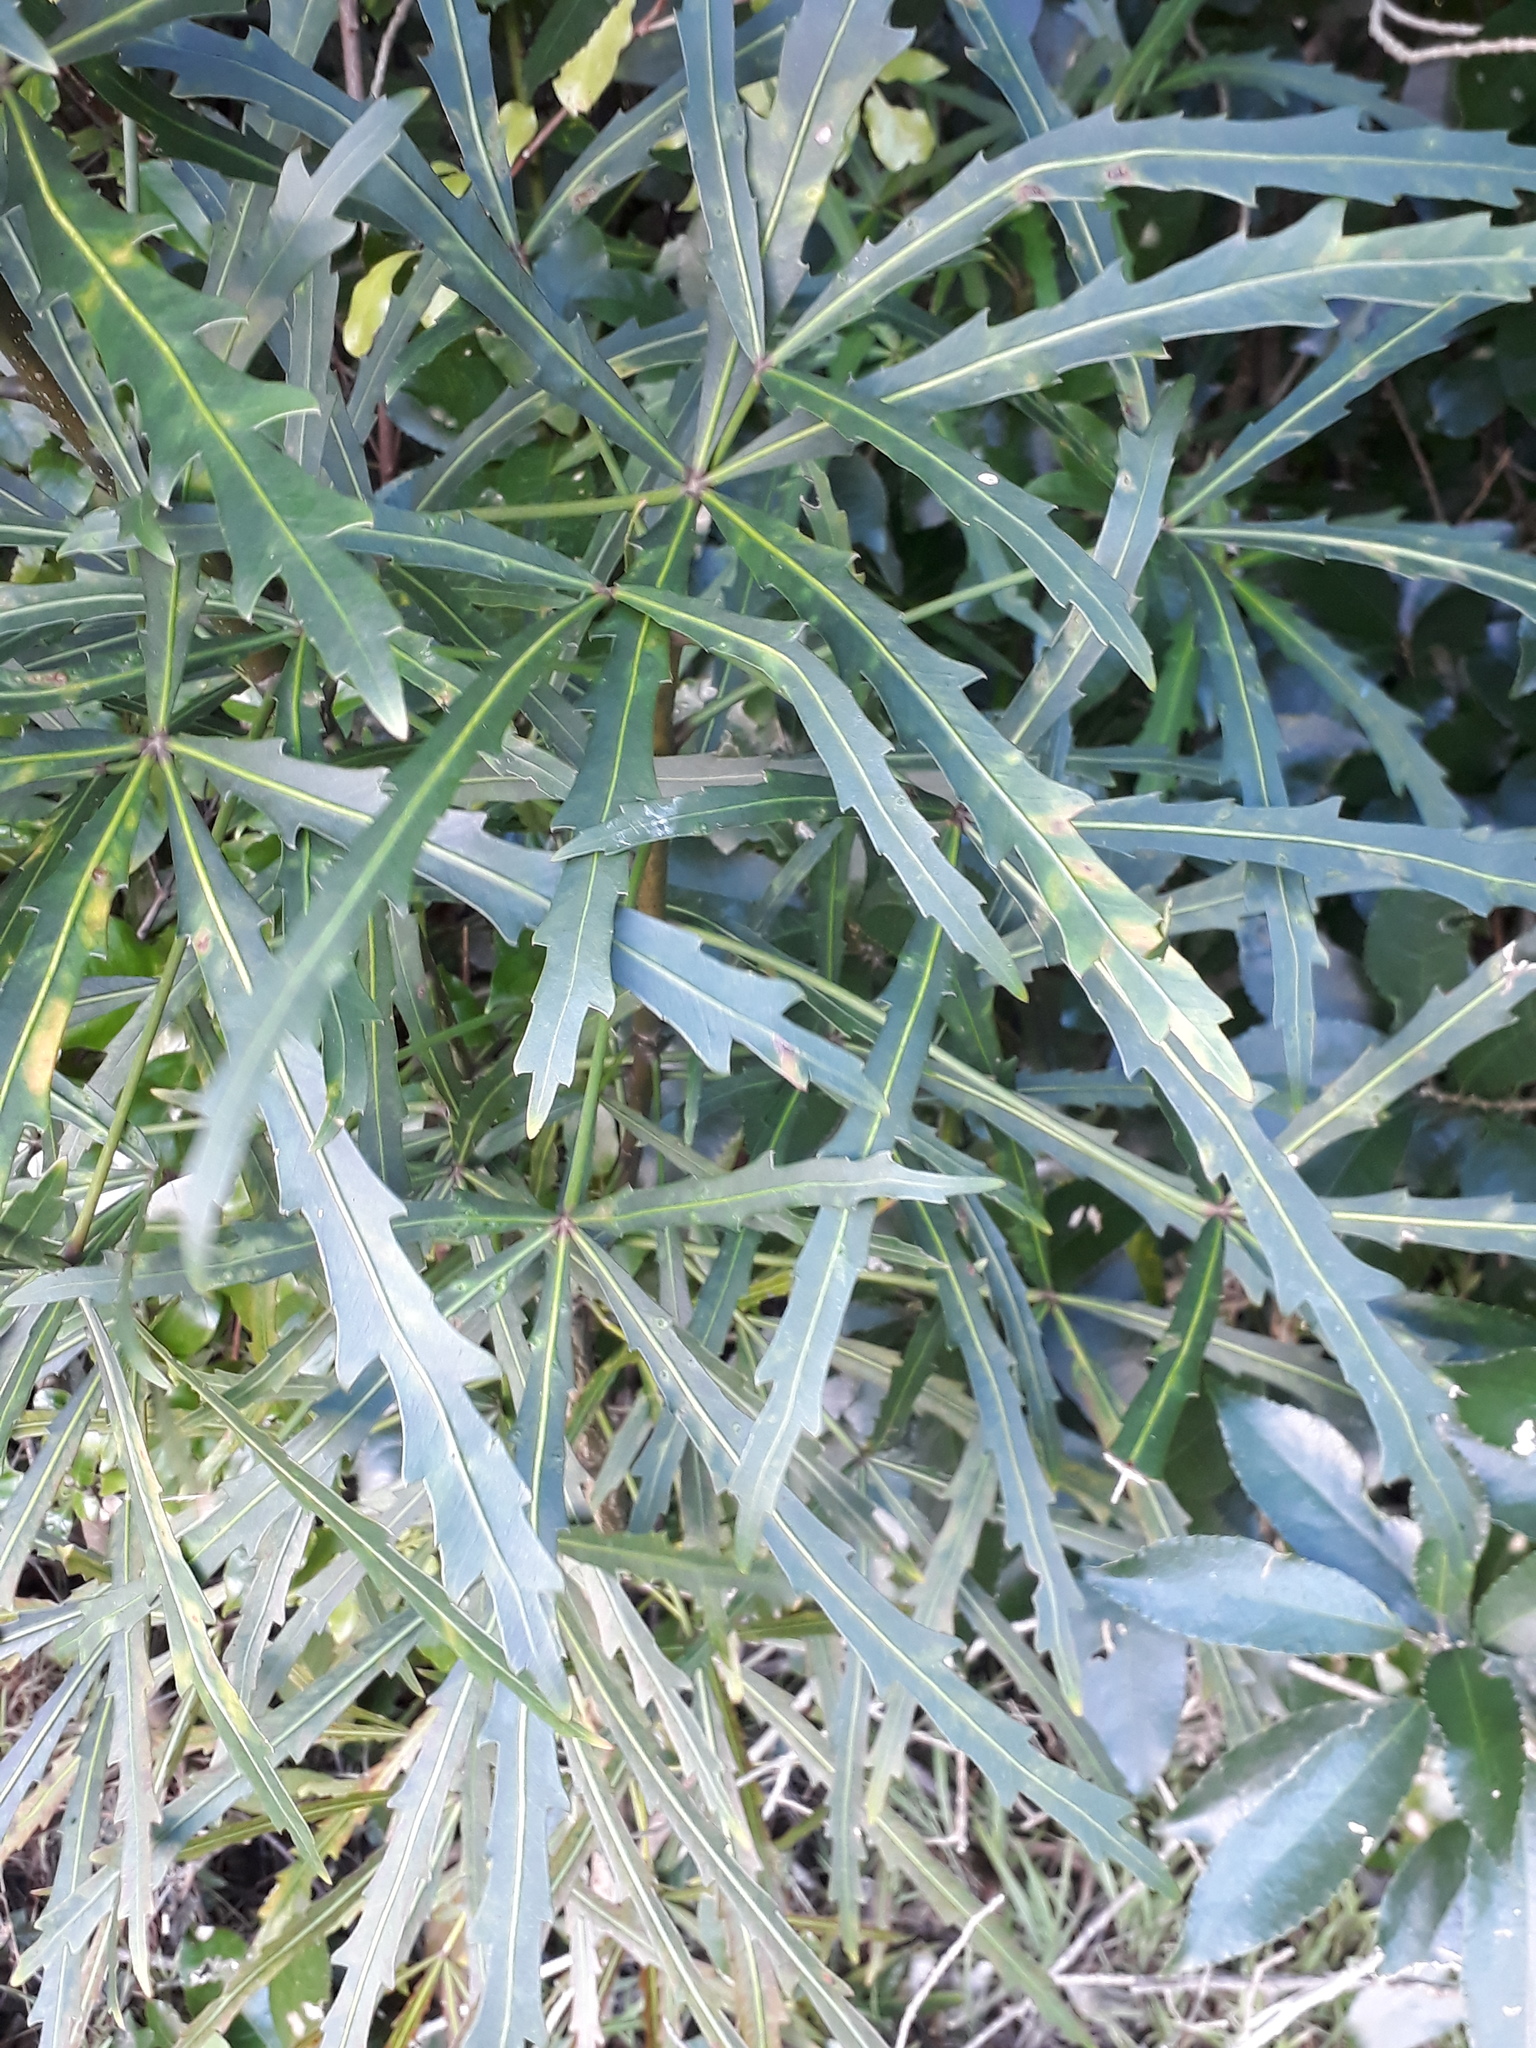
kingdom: Plantae
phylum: Tracheophyta
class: Magnoliopsida
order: Apiales
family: Araliaceae
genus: Pseudopanax
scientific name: Pseudopanax
